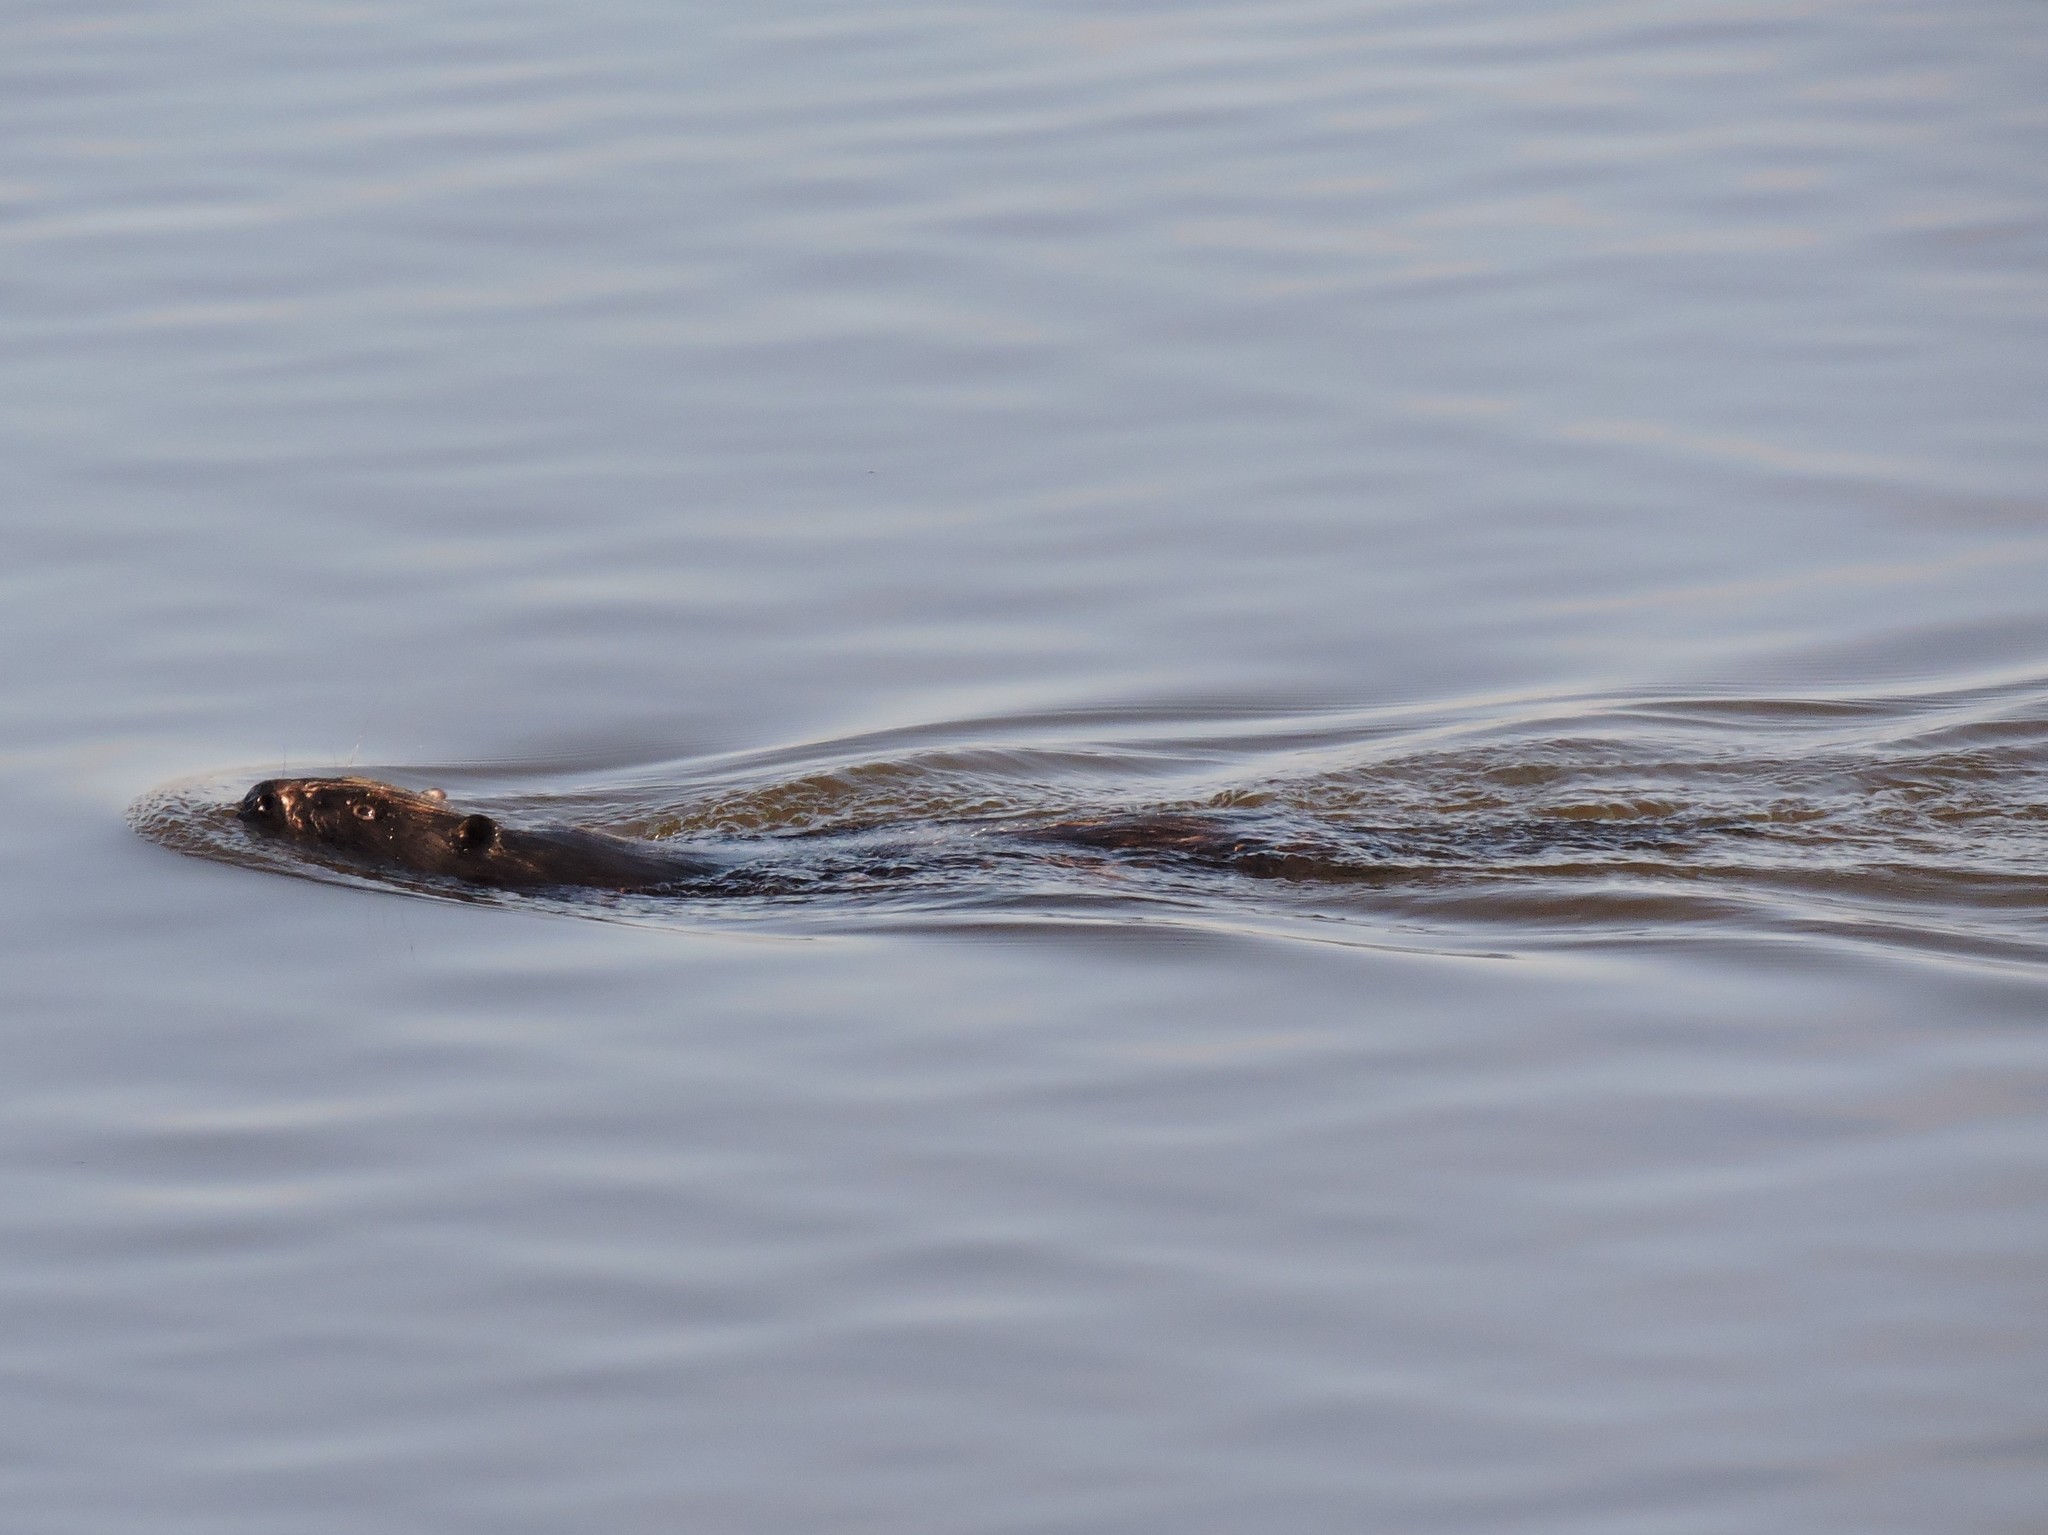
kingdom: Animalia
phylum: Chordata
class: Mammalia
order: Rodentia
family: Castoridae
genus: Castor
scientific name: Castor fiber
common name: Eurasian beaver
